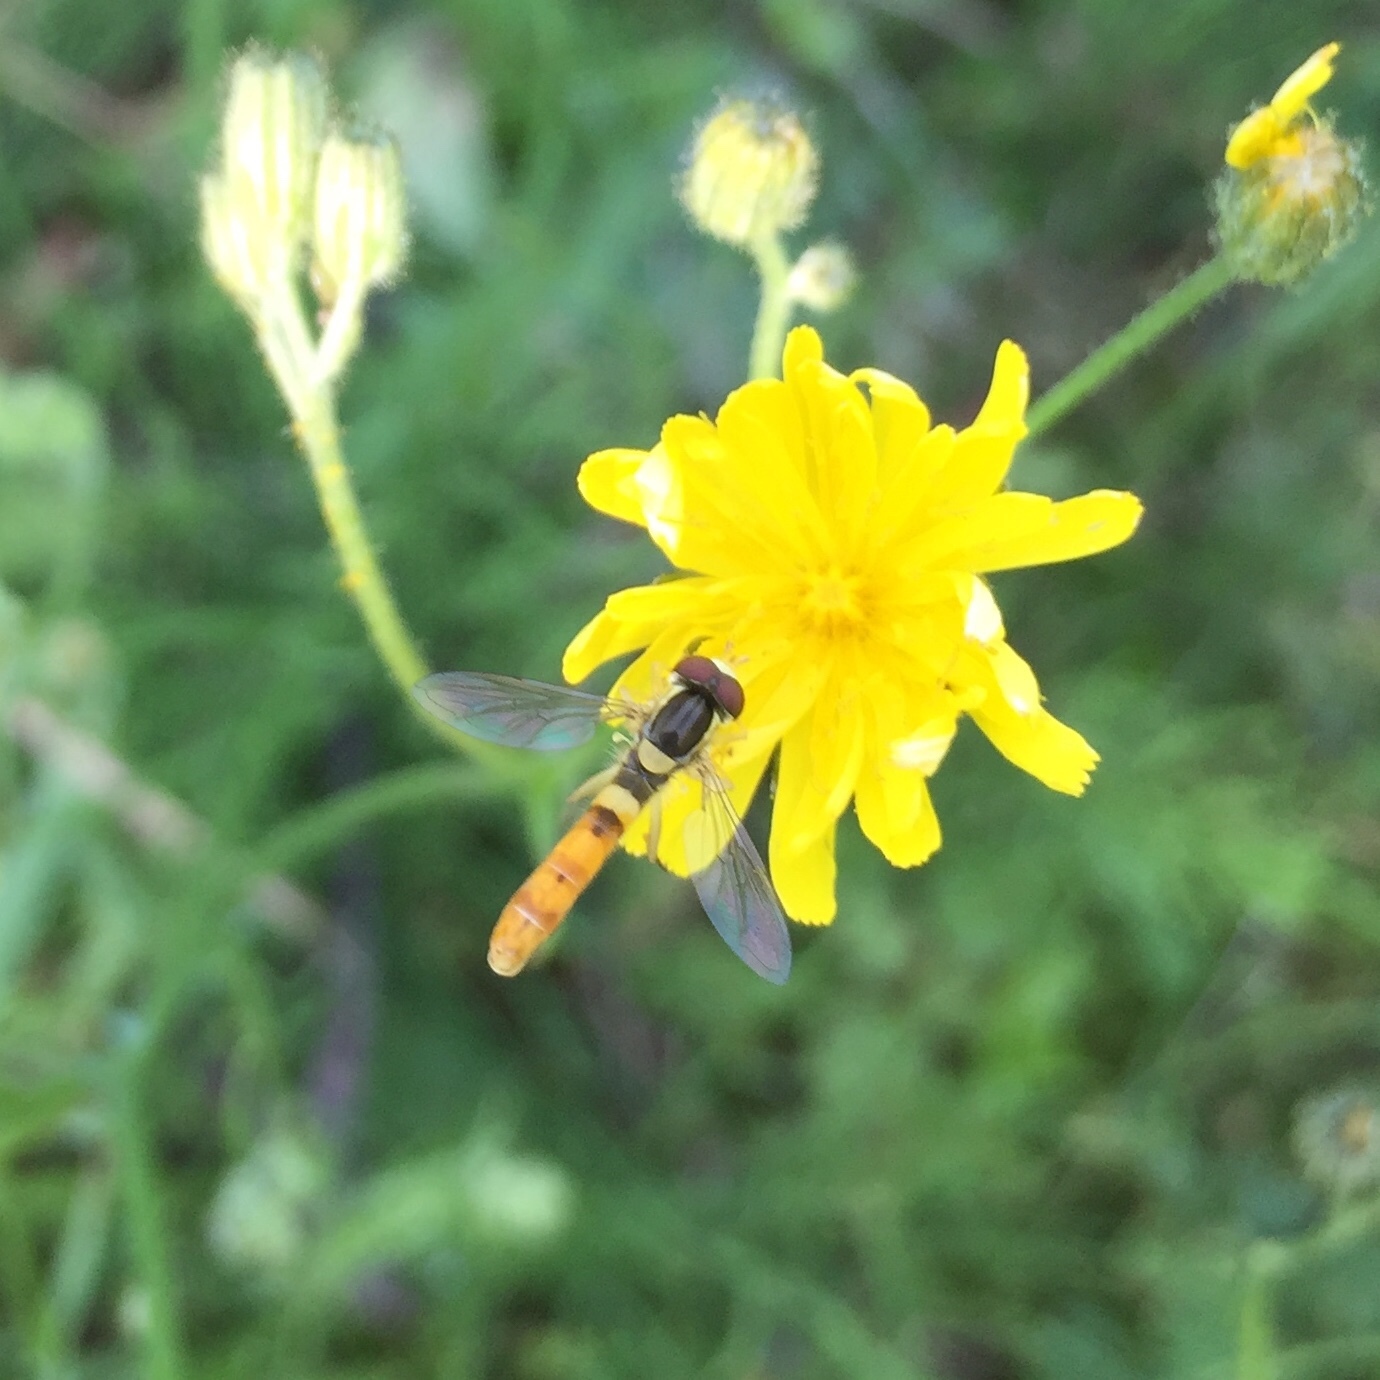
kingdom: Animalia
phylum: Arthropoda
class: Insecta
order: Diptera
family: Syrphidae
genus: Sphaerophoria
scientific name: Sphaerophoria scripta
